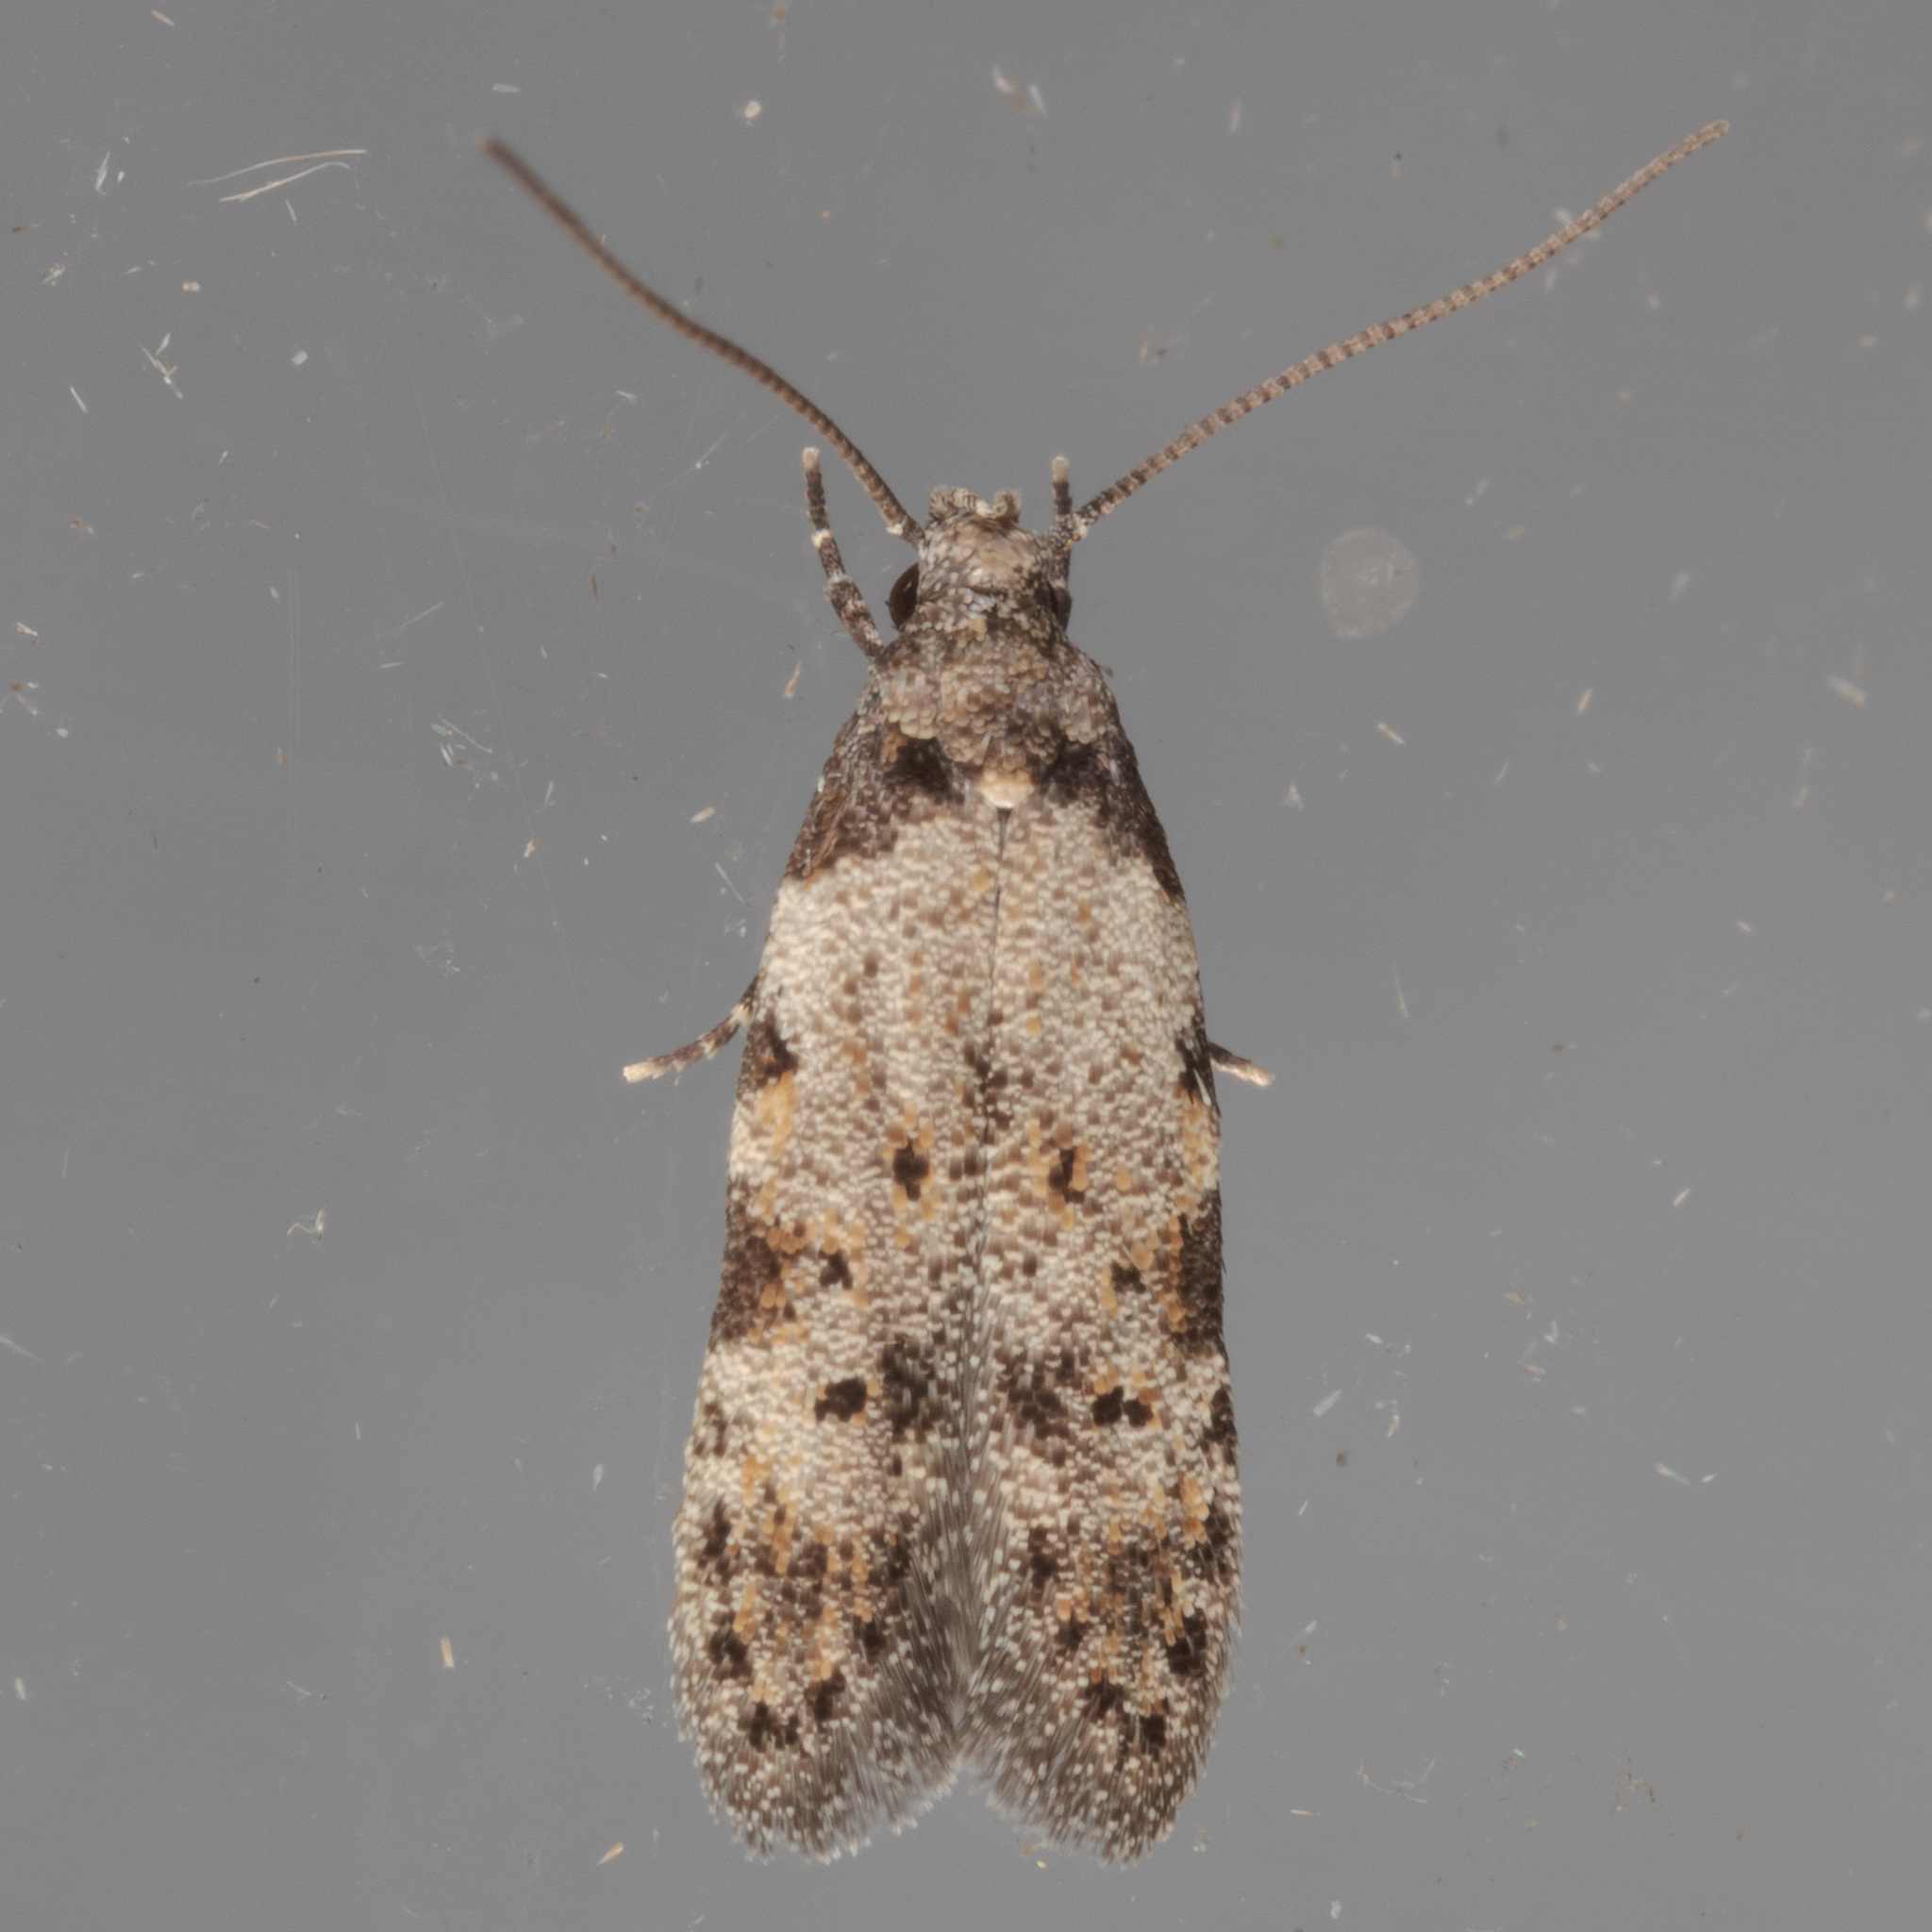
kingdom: Animalia
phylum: Arthropoda
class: Insecta
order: Lepidoptera
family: Autostichidae
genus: Taygete
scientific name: Taygete attributella
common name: Triangle-marked twirler moth
